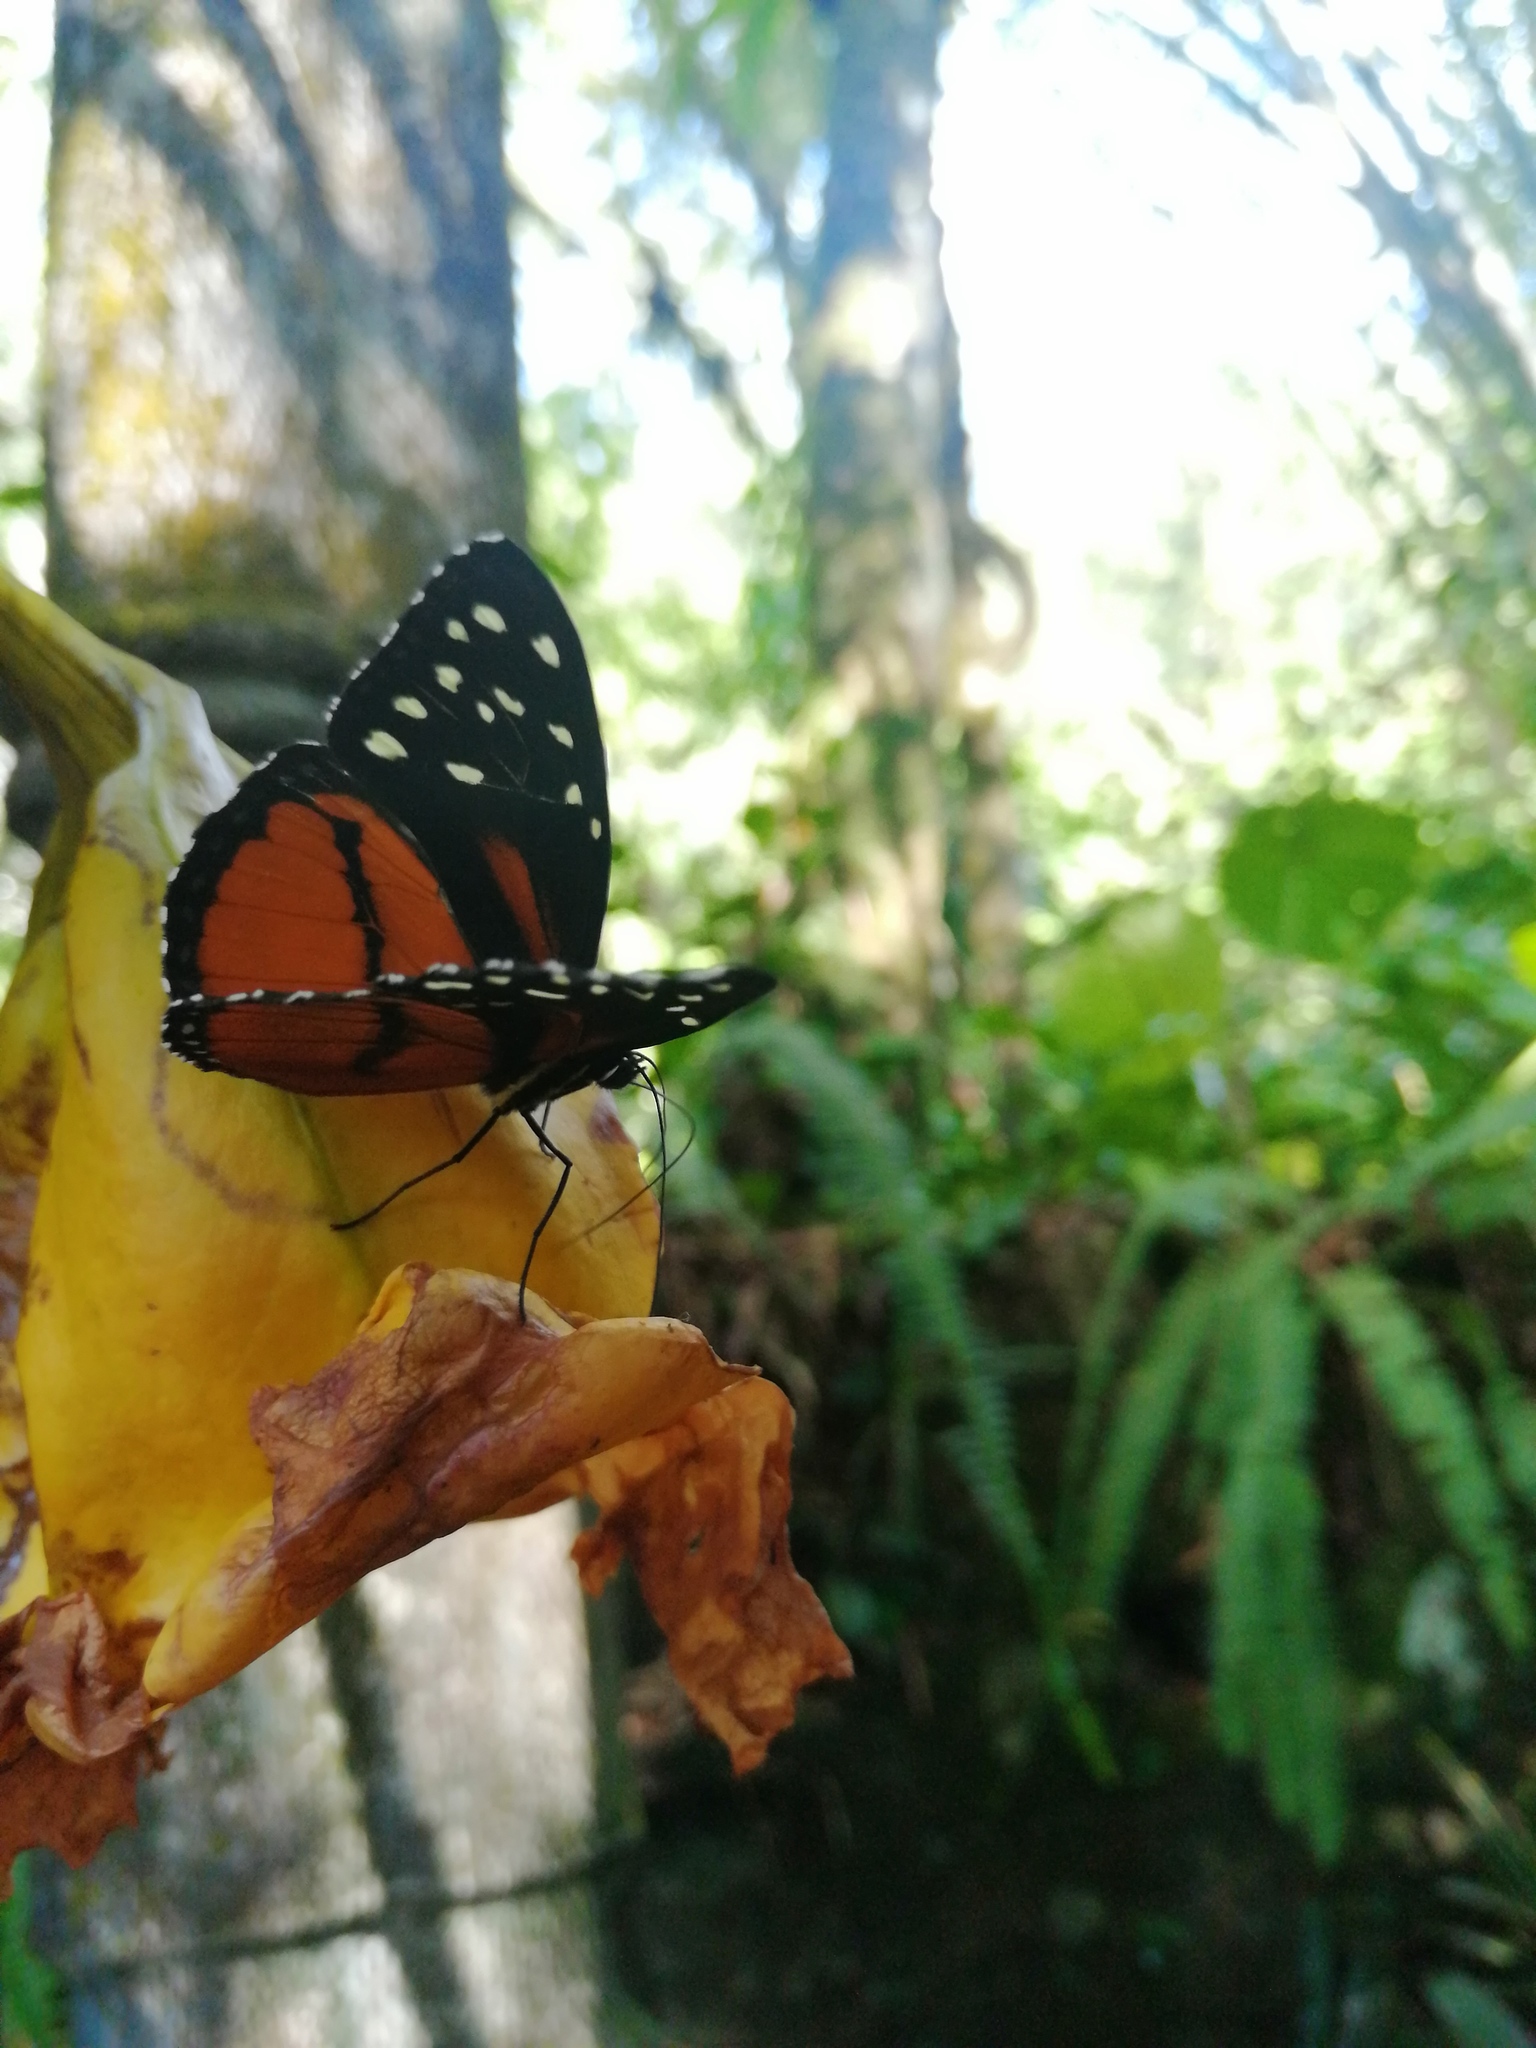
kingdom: Animalia
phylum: Arthropoda
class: Insecta
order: Lepidoptera
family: Nymphalidae
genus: Tithorea
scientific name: Tithorea tarricina
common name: Cream-spotted tigerwing
